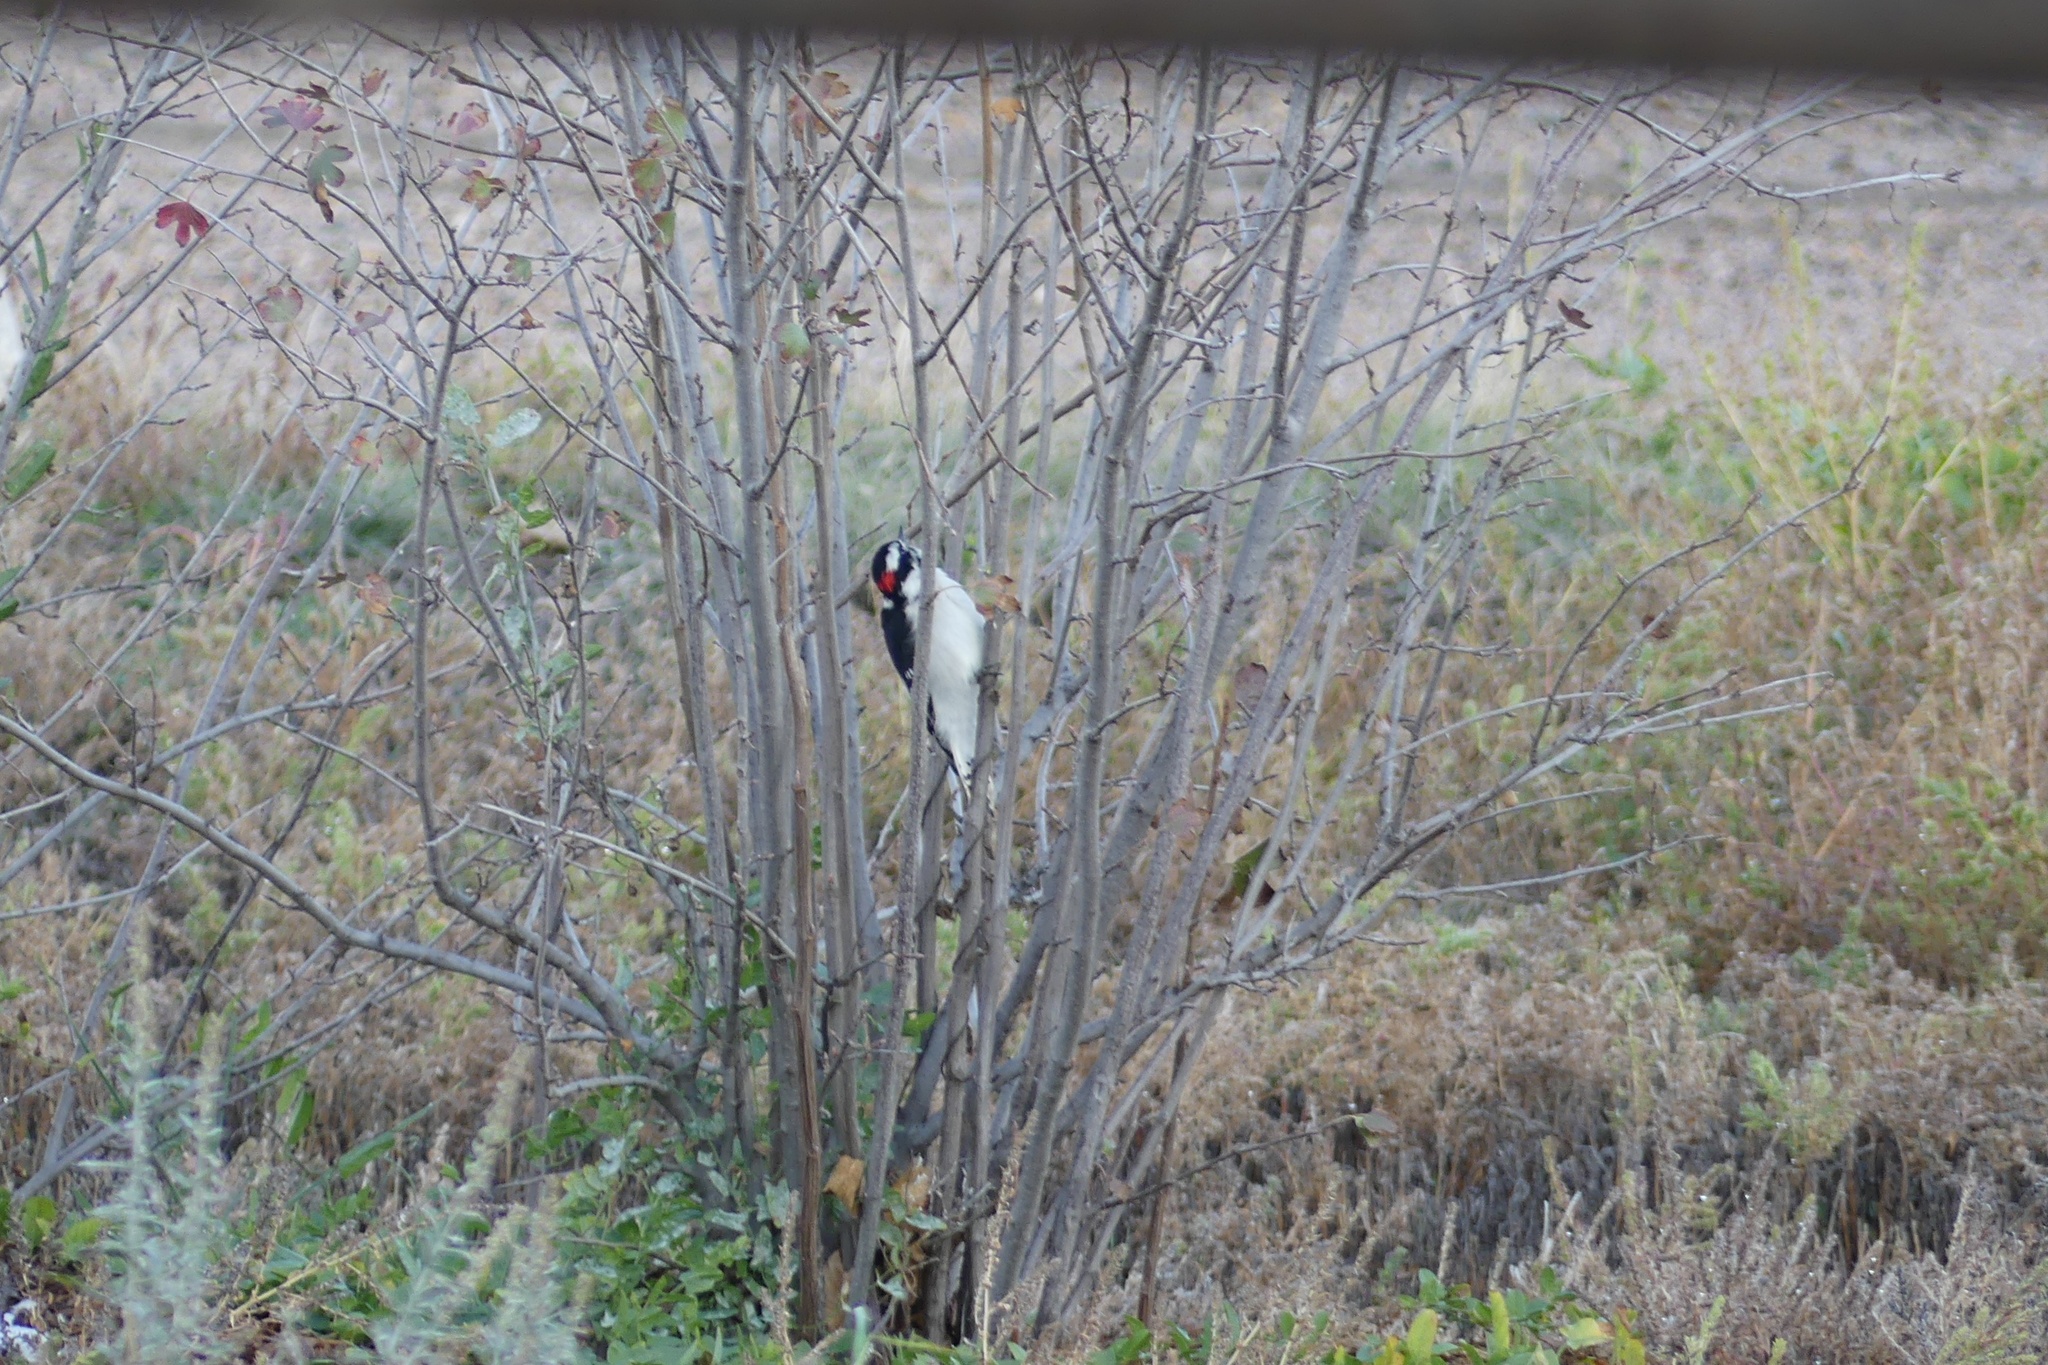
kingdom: Animalia
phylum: Chordata
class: Aves
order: Piciformes
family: Picidae
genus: Dryobates
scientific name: Dryobates pubescens
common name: Downy woodpecker
